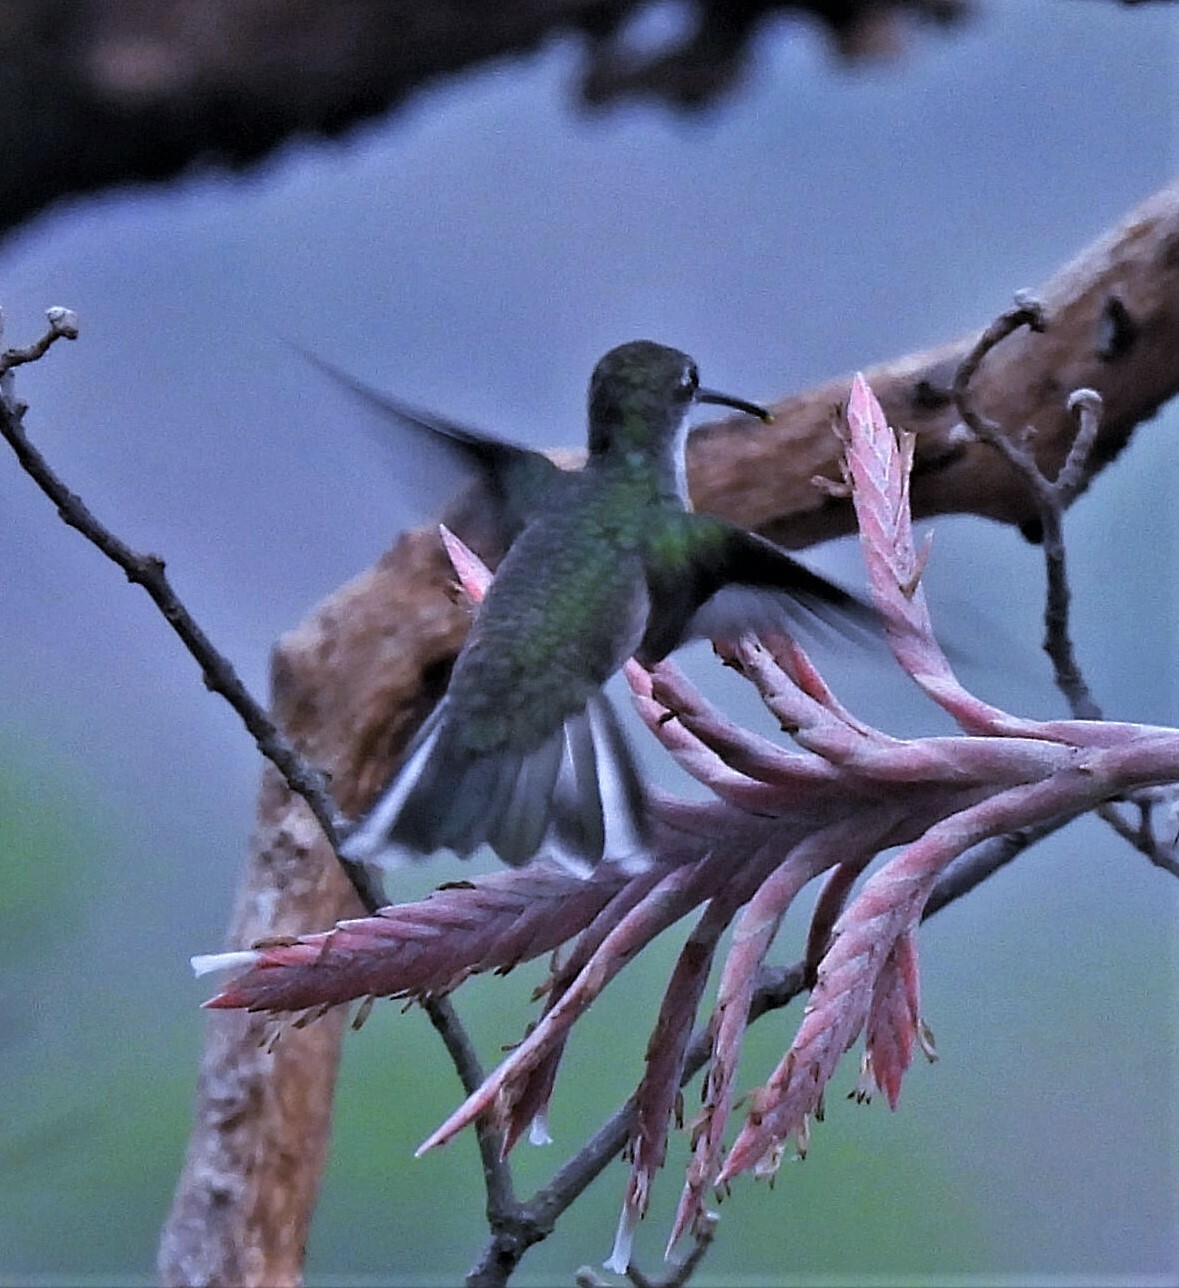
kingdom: Animalia
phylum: Chordata
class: Aves
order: Apodiformes
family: Trochilidae
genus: Elliotomyia
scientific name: Elliotomyia chionogaster
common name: White-bellied hummingbird
